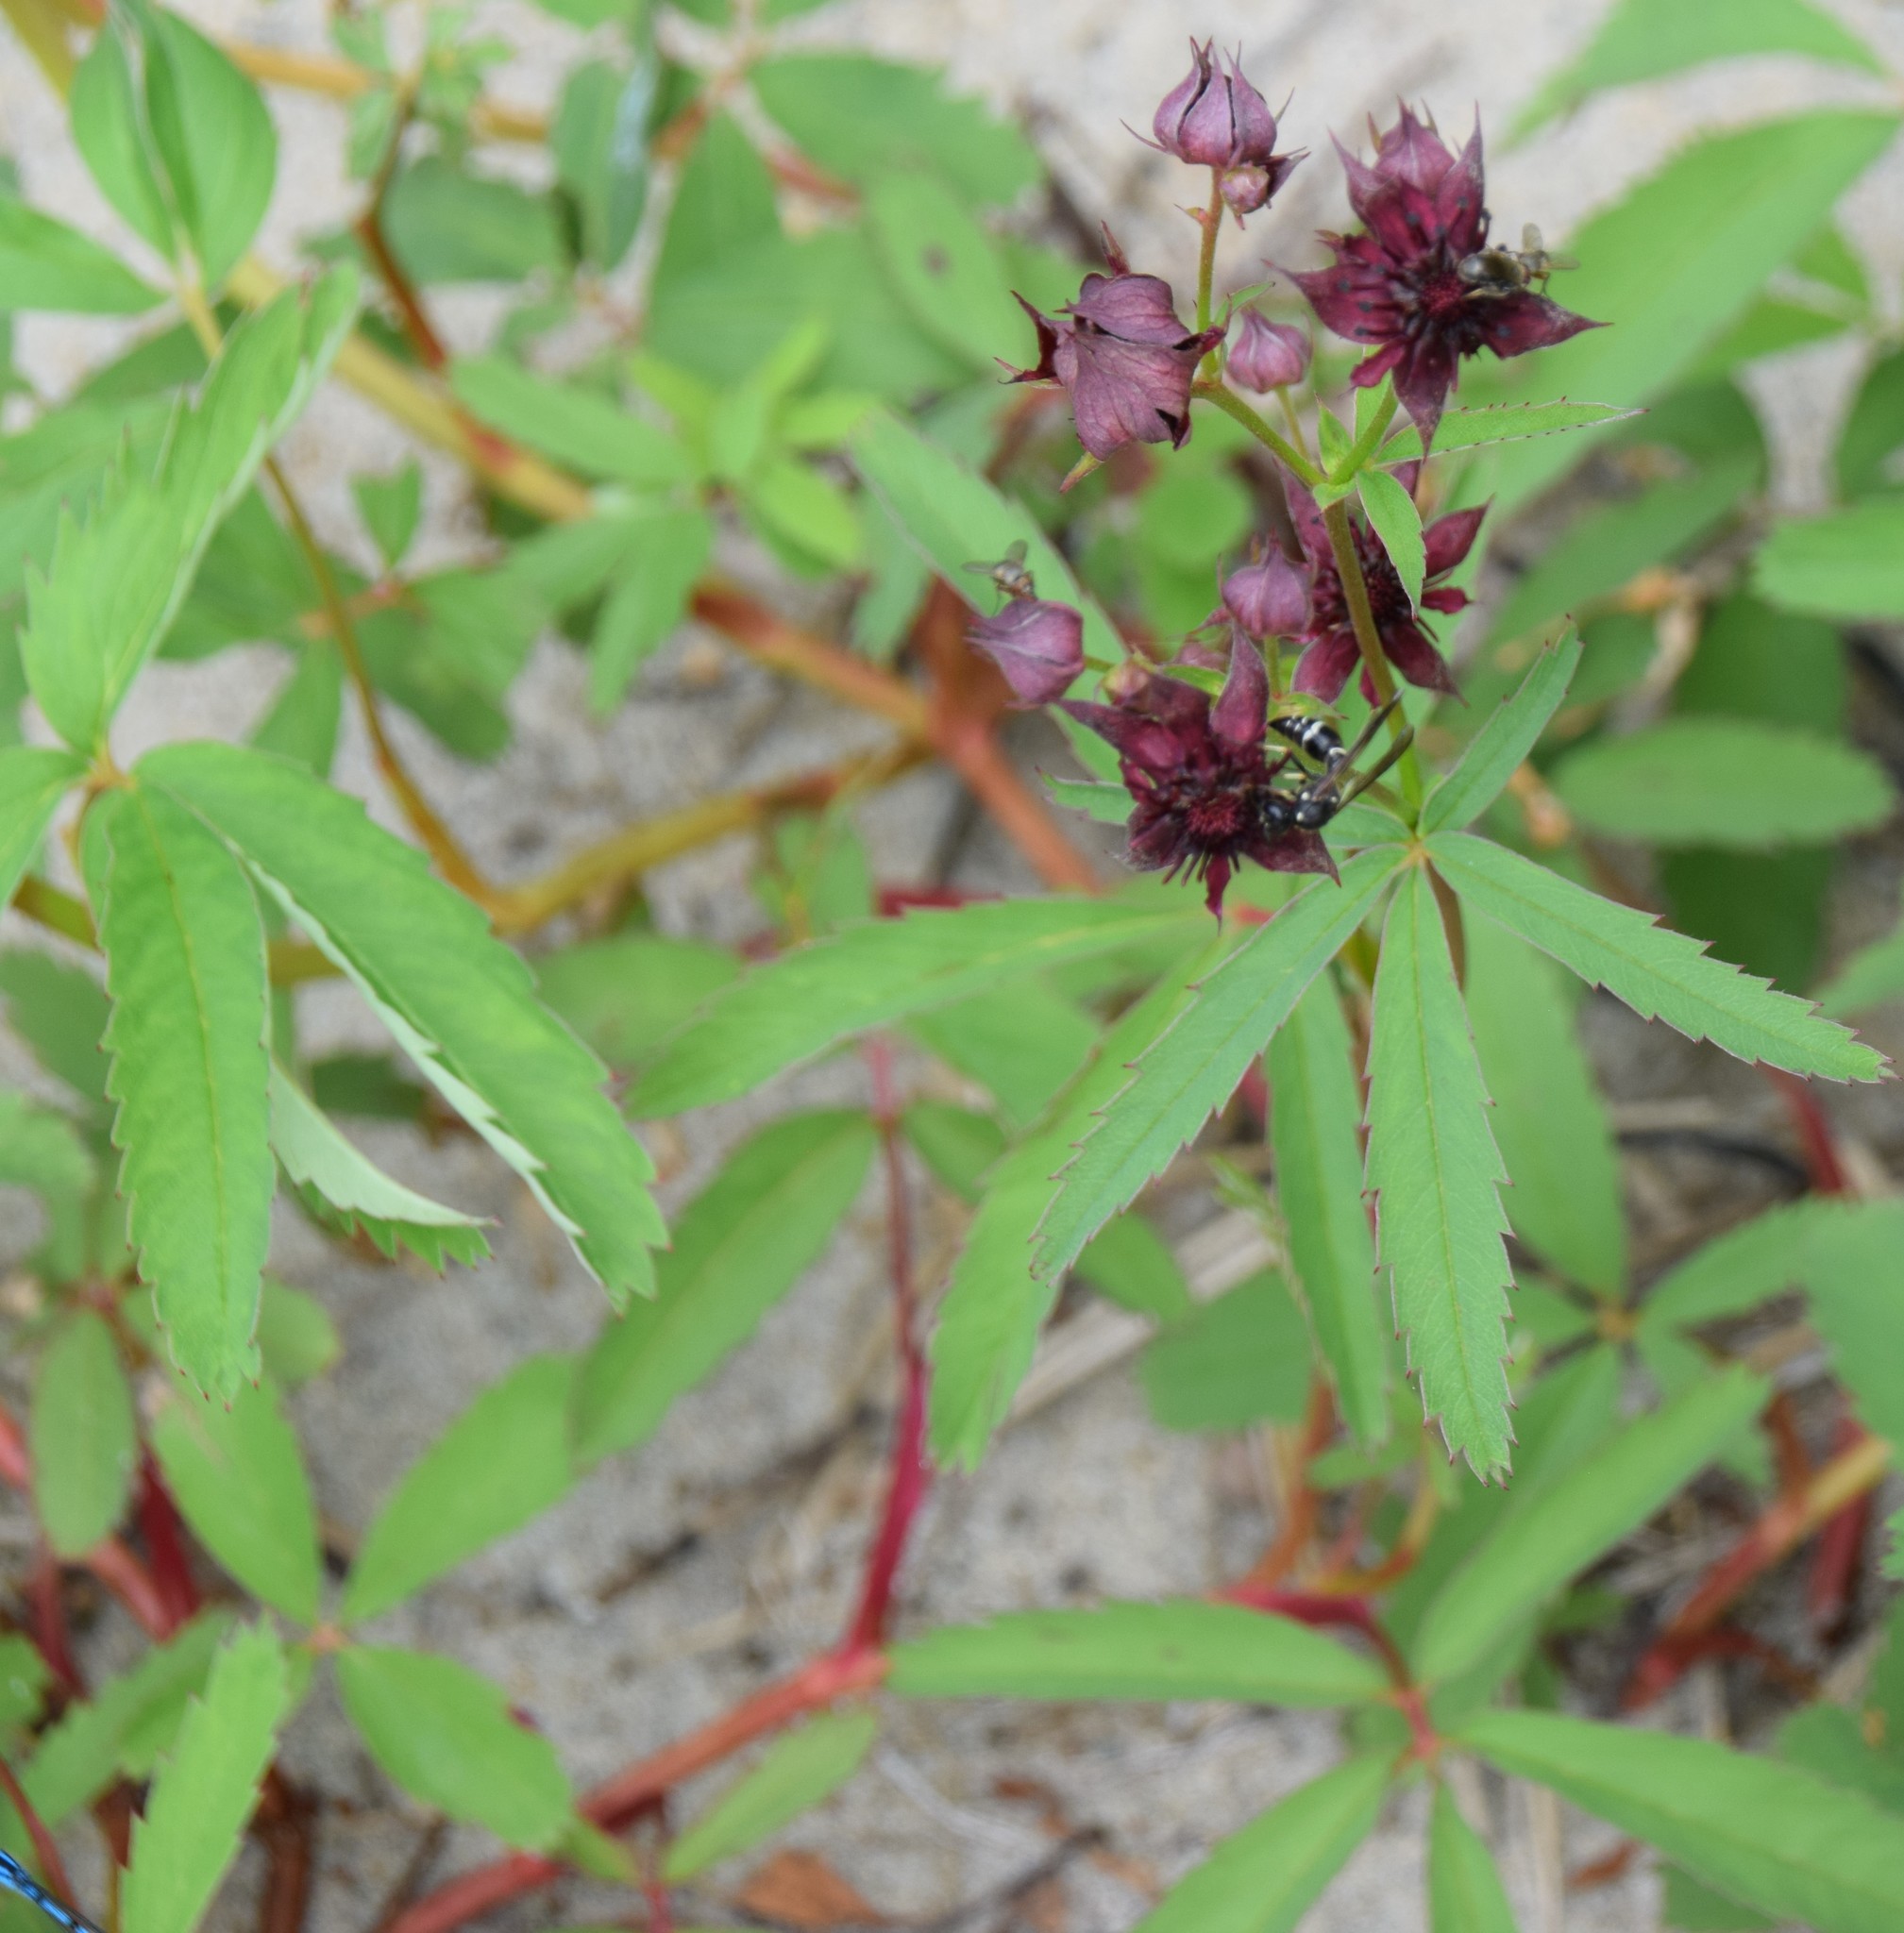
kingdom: Plantae
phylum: Tracheophyta
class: Magnoliopsida
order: Rosales
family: Rosaceae
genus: Comarum
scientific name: Comarum palustre
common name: Marsh cinquefoil
